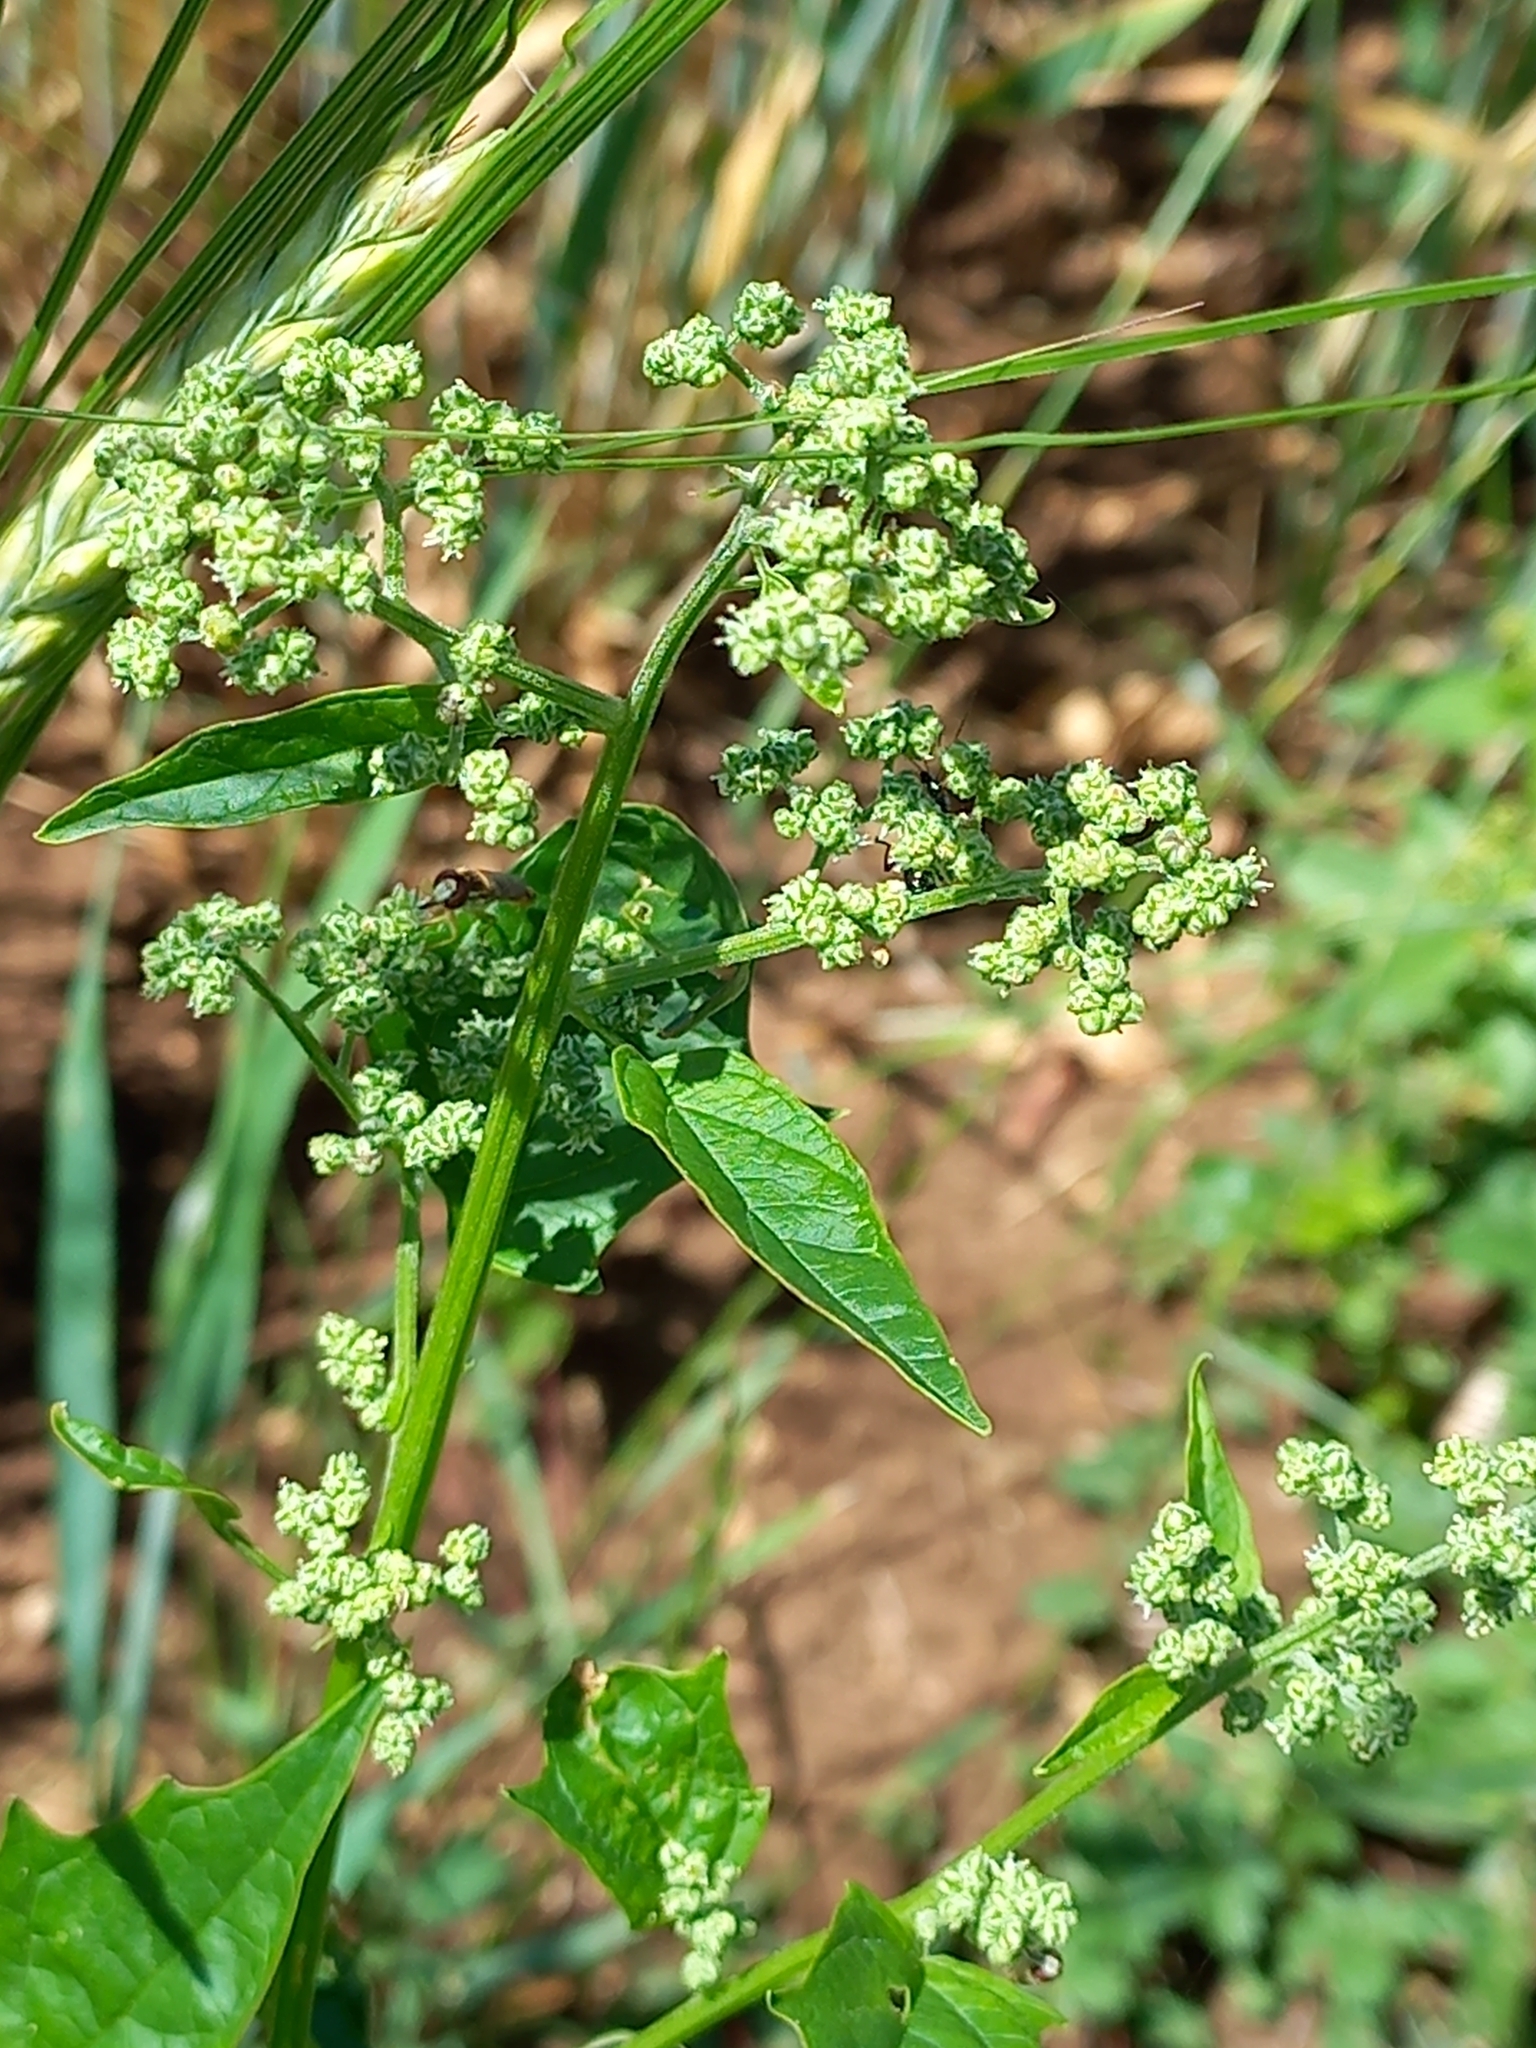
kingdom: Plantae
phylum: Tracheophyta
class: Magnoliopsida
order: Malpighiales
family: Euphorbiaceae
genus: Mercurialis
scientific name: Mercurialis annua
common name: Annual mercury
